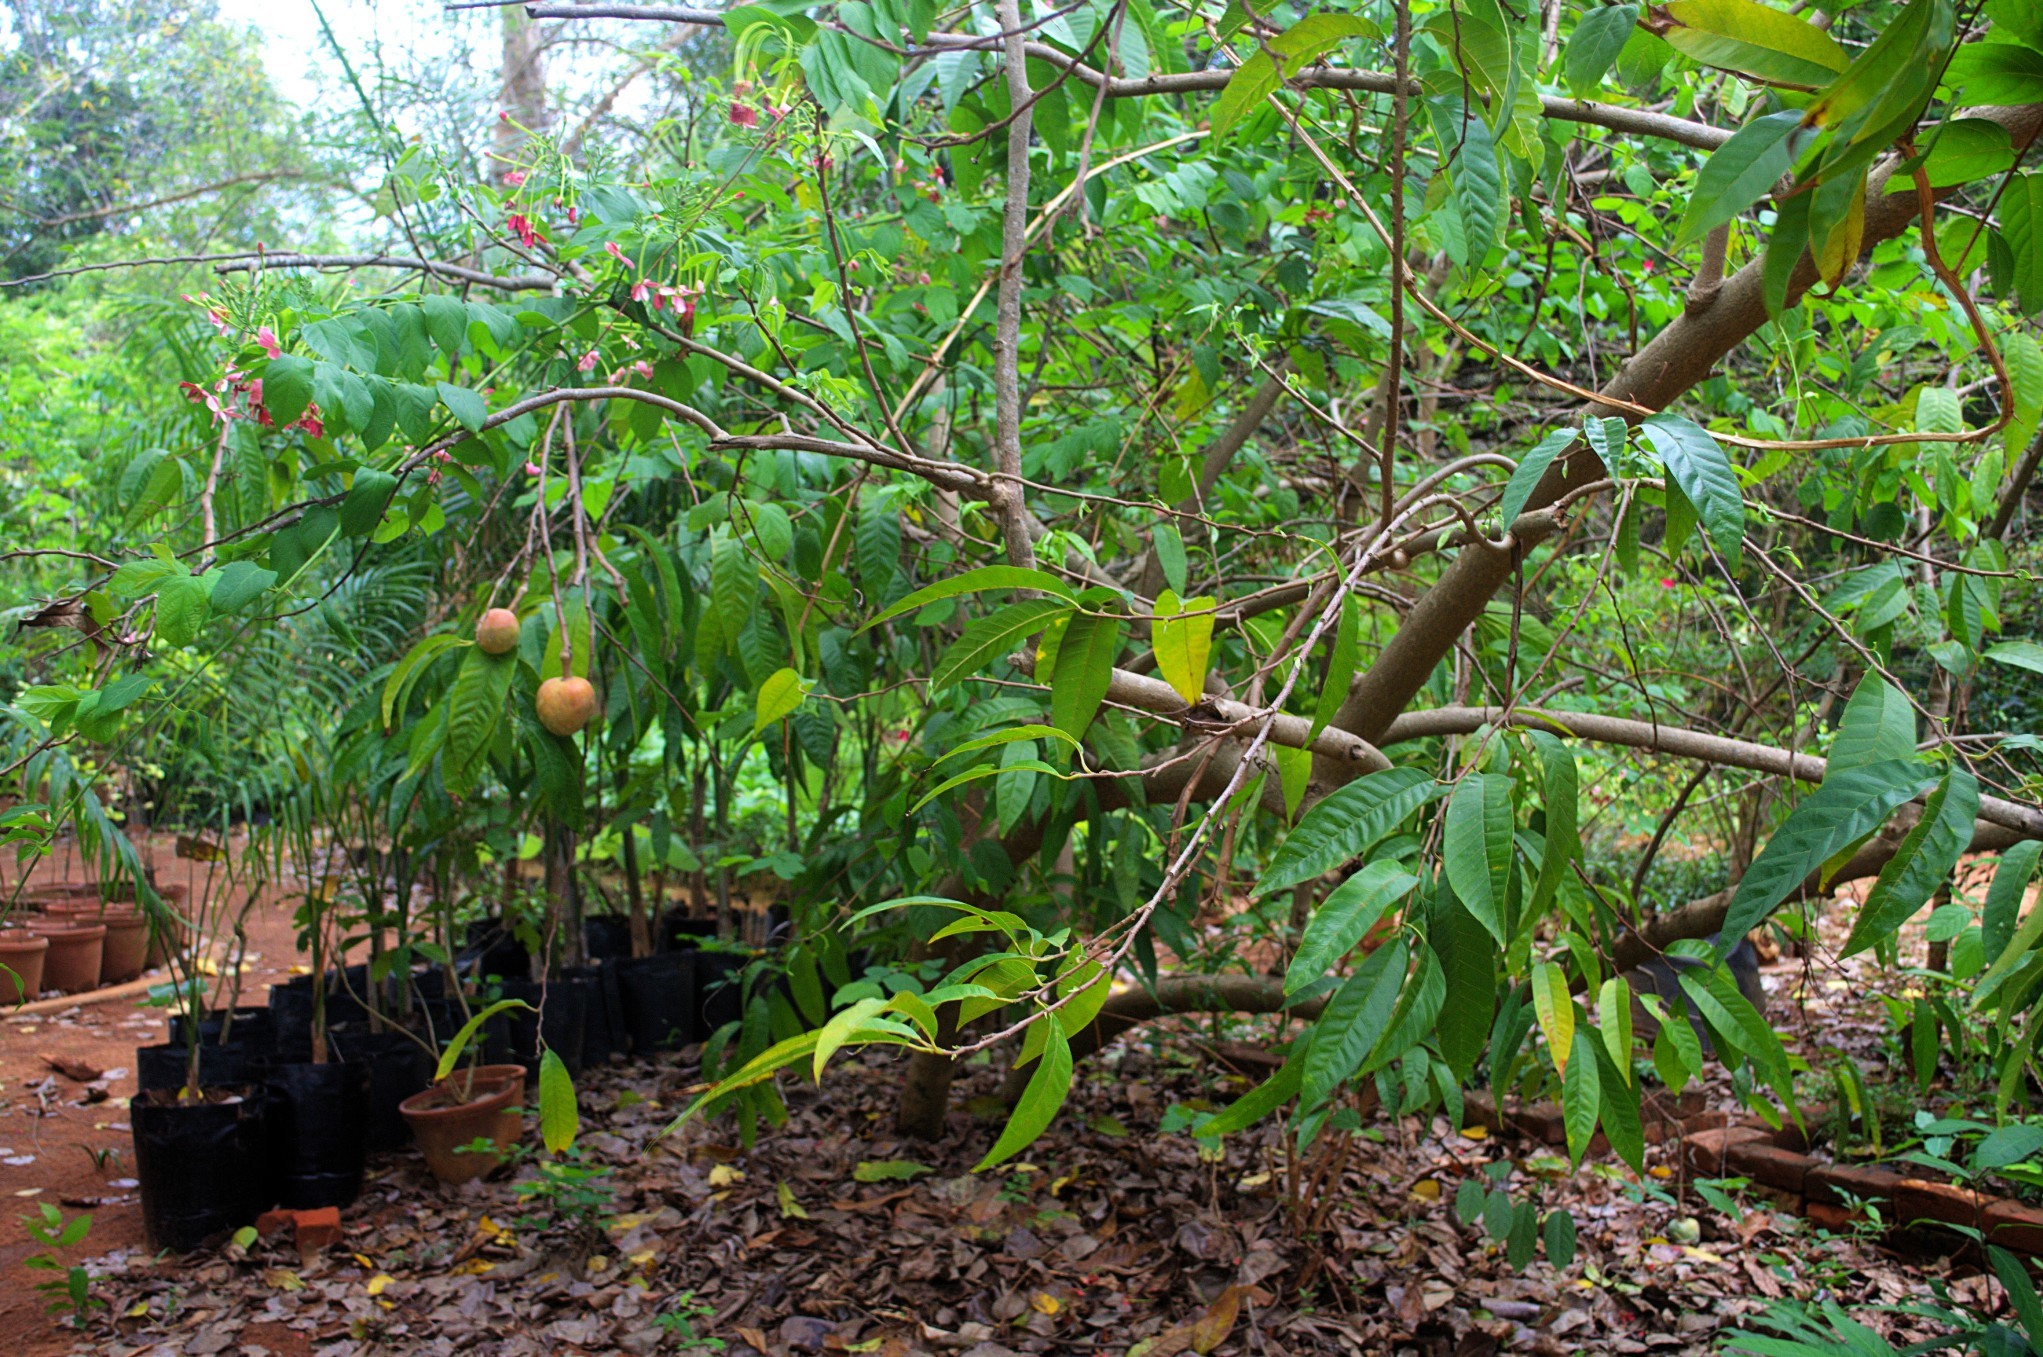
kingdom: Plantae
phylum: Tracheophyta
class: Magnoliopsida
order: Magnoliales
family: Annonaceae
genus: Annona
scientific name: Annona reticulata
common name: Custard apple
